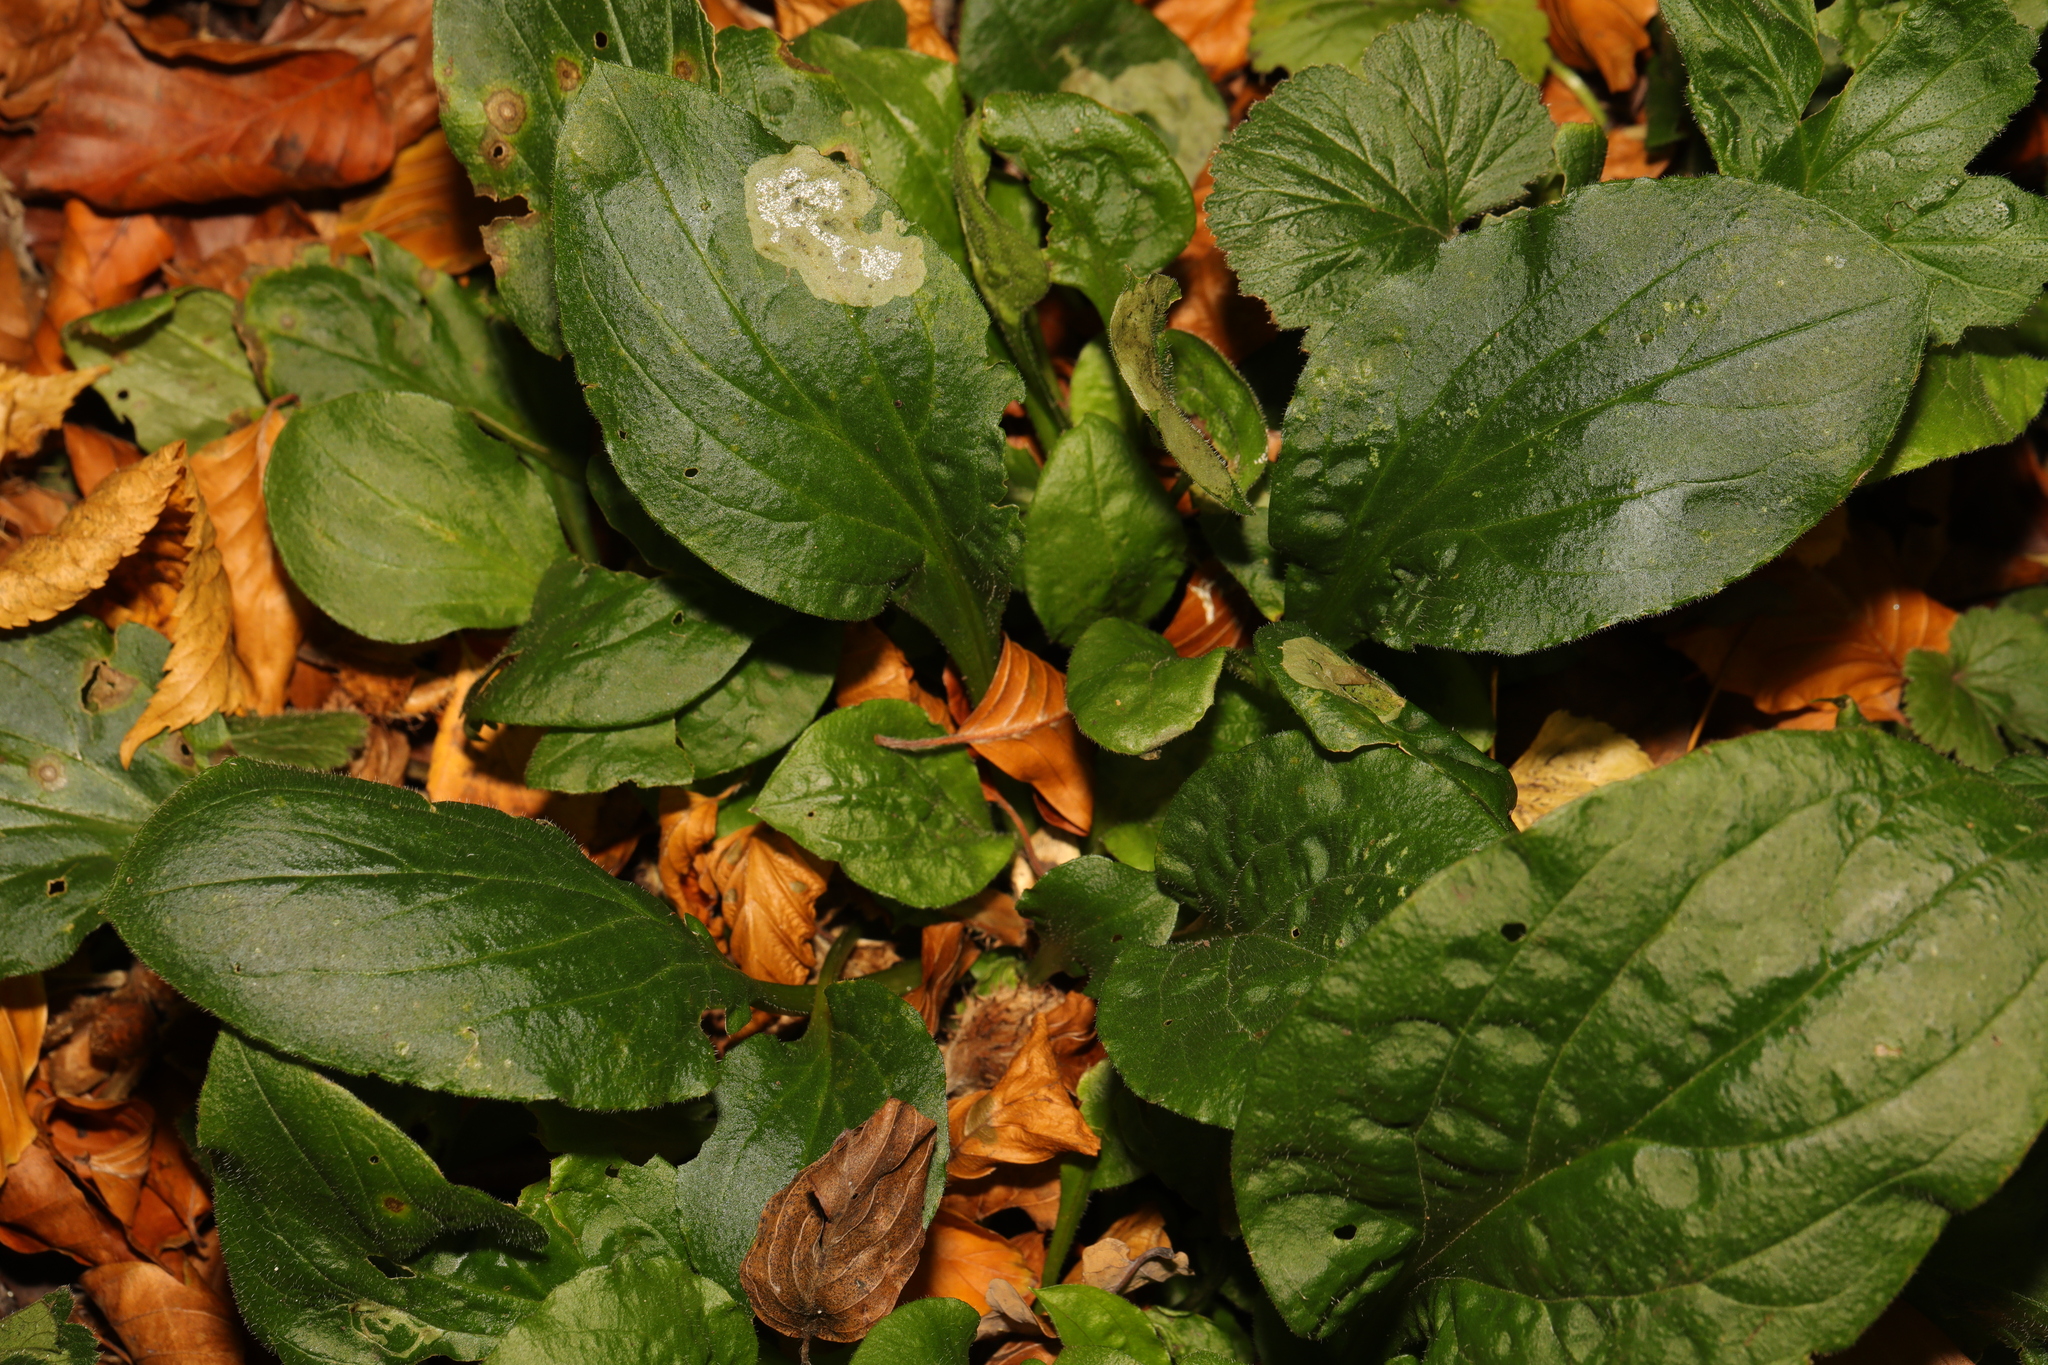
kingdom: Plantae
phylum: Tracheophyta
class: Magnoliopsida
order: Caryophyllales
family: Caryophyllaceae
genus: Silene
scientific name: Silene dioica
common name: Red campion
